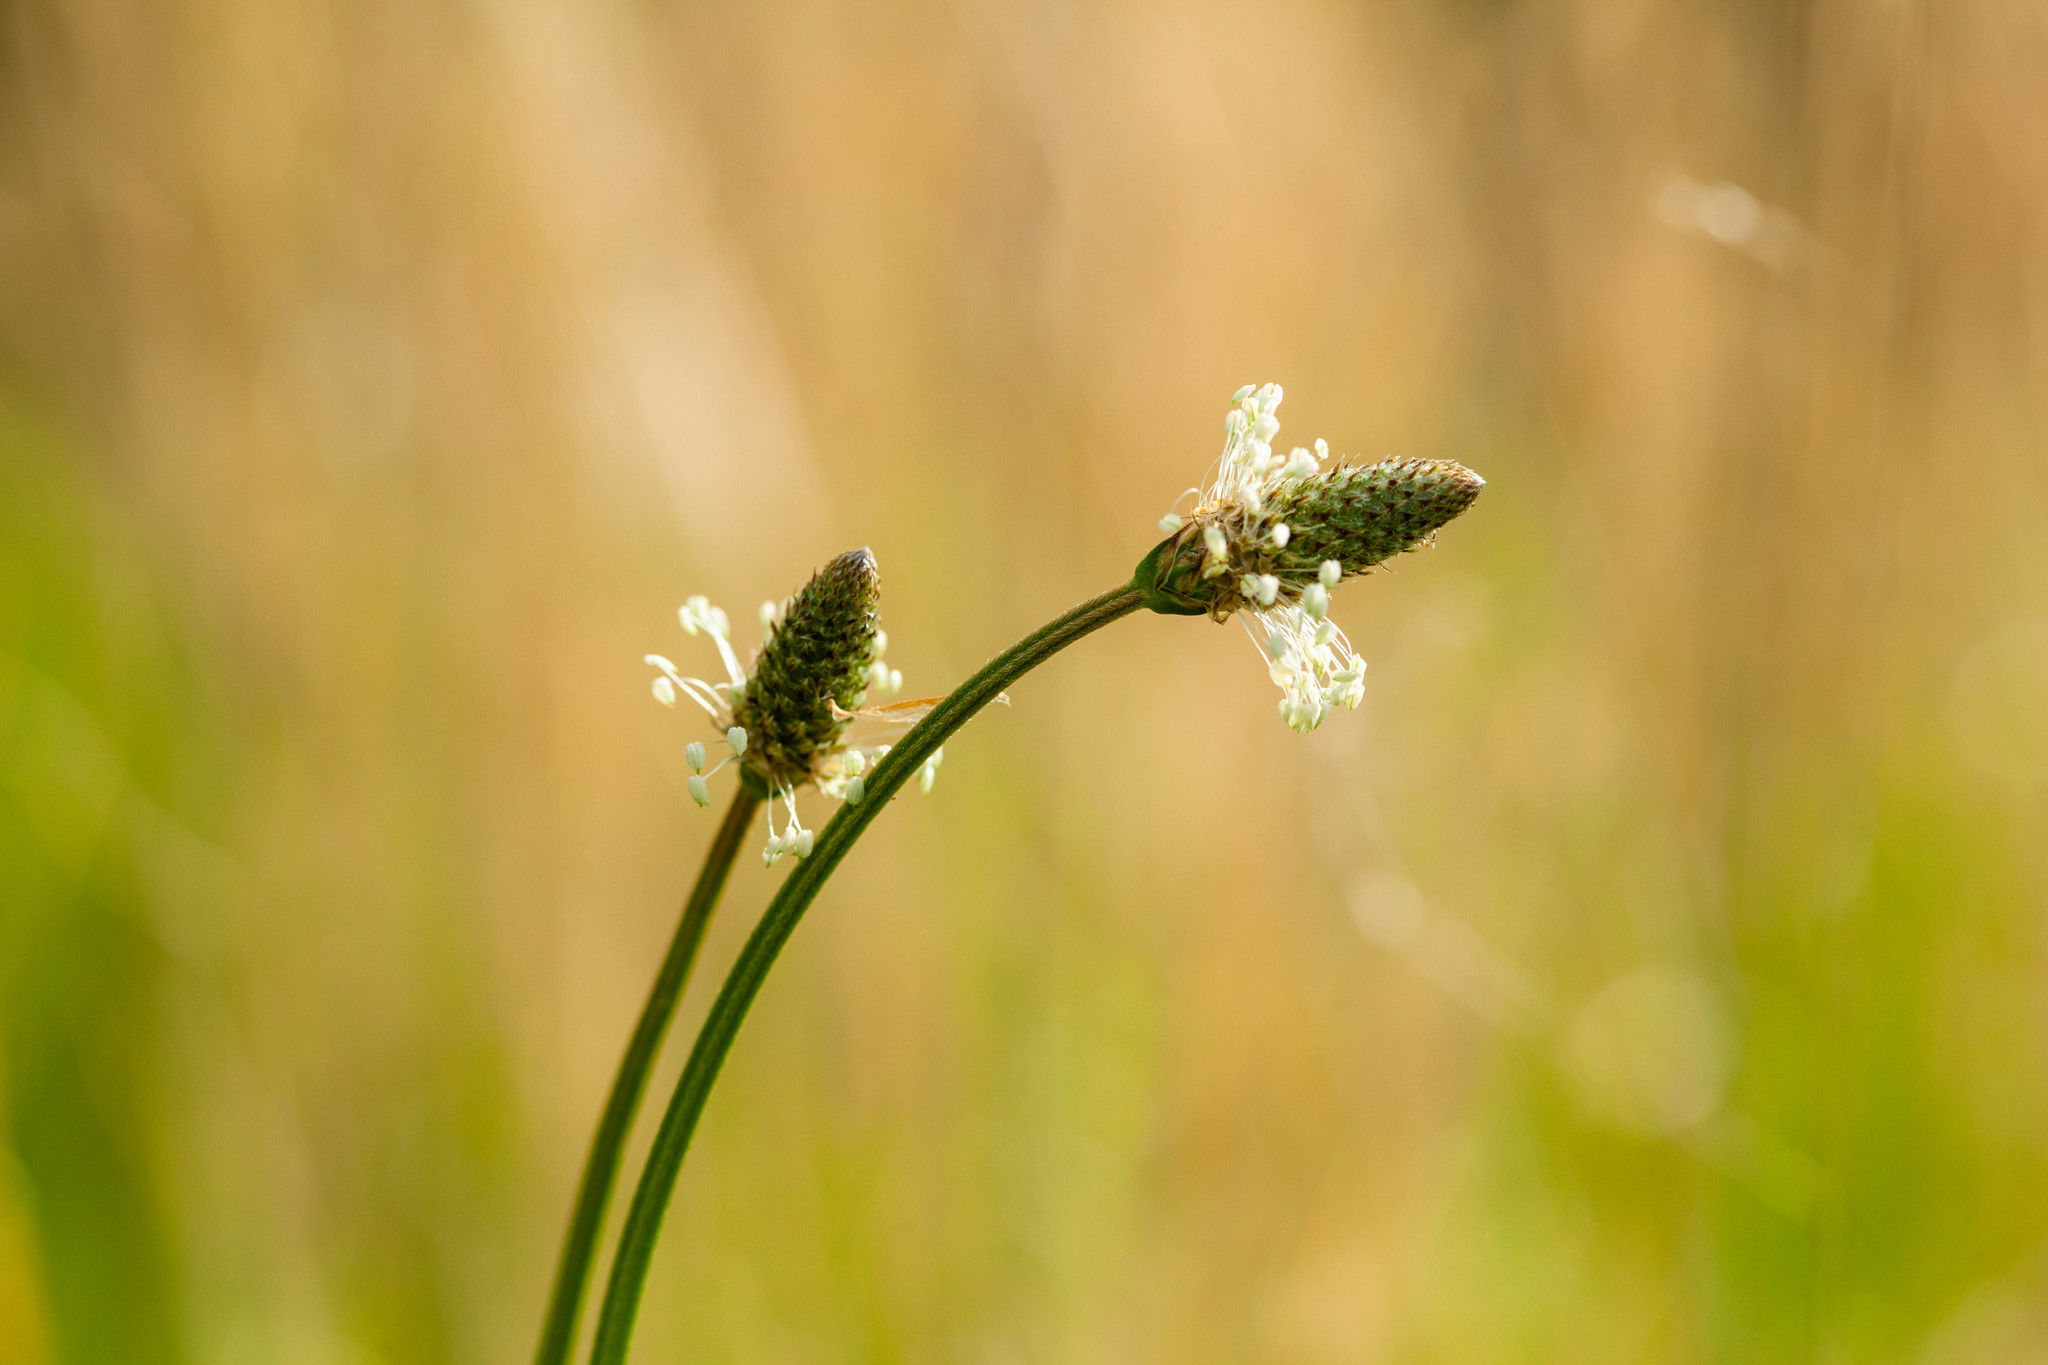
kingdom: Plantae
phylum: Tracheophyta
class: Magnoliopsida
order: Lamiales
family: Plantaginaceae
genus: Plantago
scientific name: Plantago lanceolata
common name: Ribwort plantain
